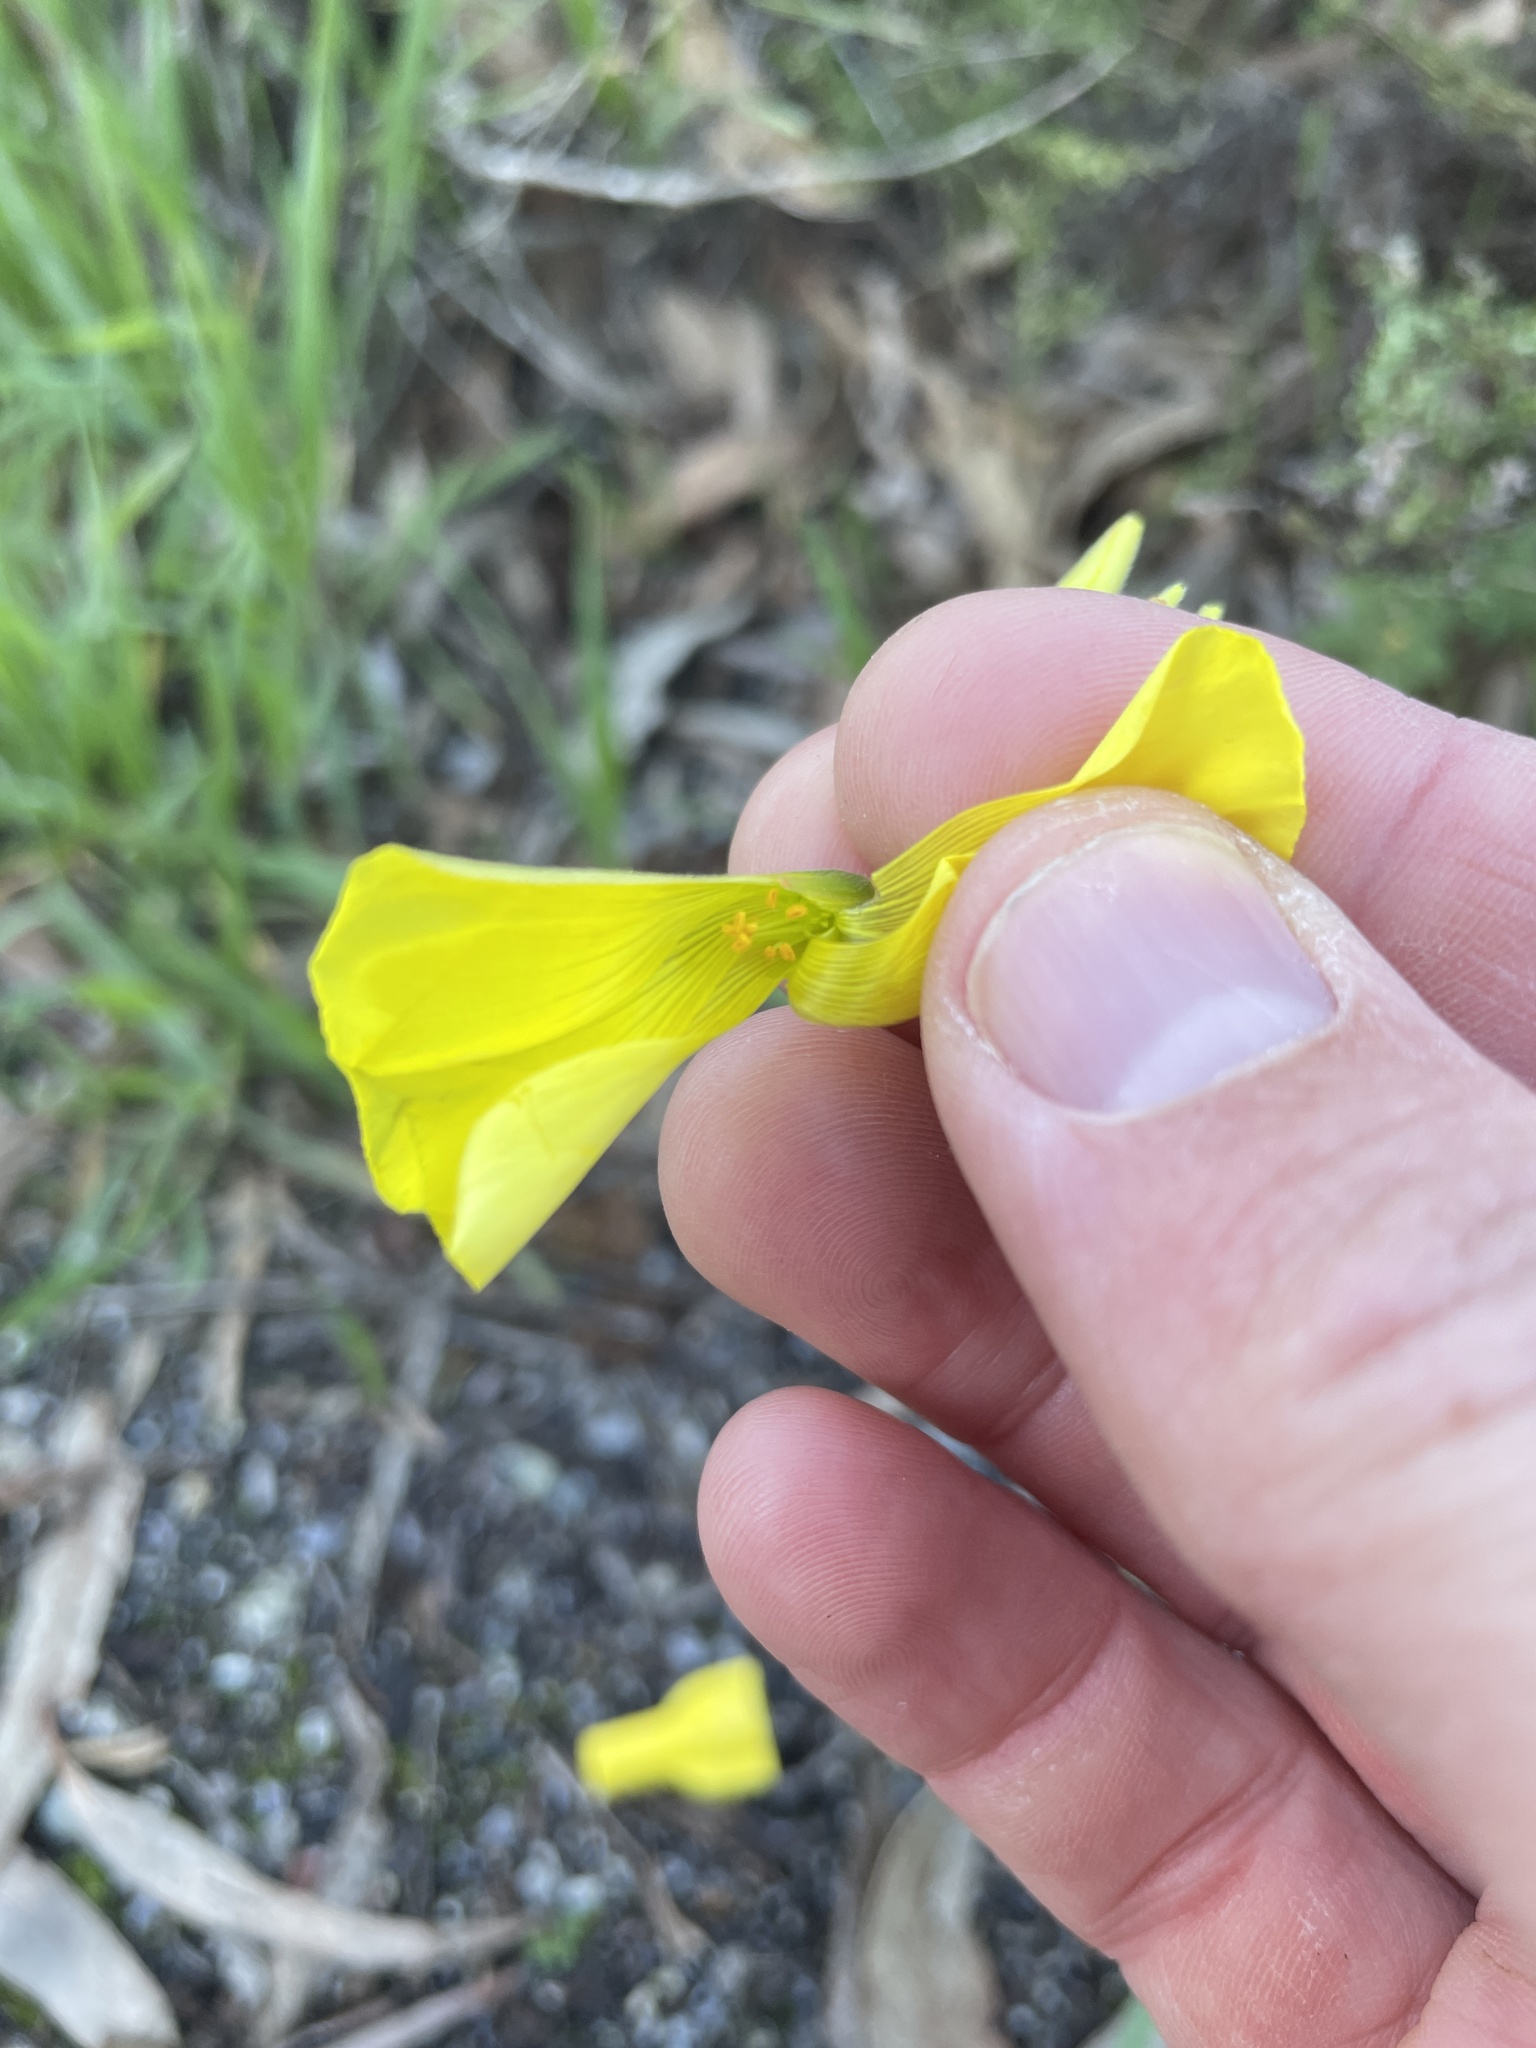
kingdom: Plantae
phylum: Tracheophyta
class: Magnoliopsida
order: Oxalidales
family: Oxalidaceae
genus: Oxalis
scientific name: Oxalis pes-caprae
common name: Bermuda-buttercup
